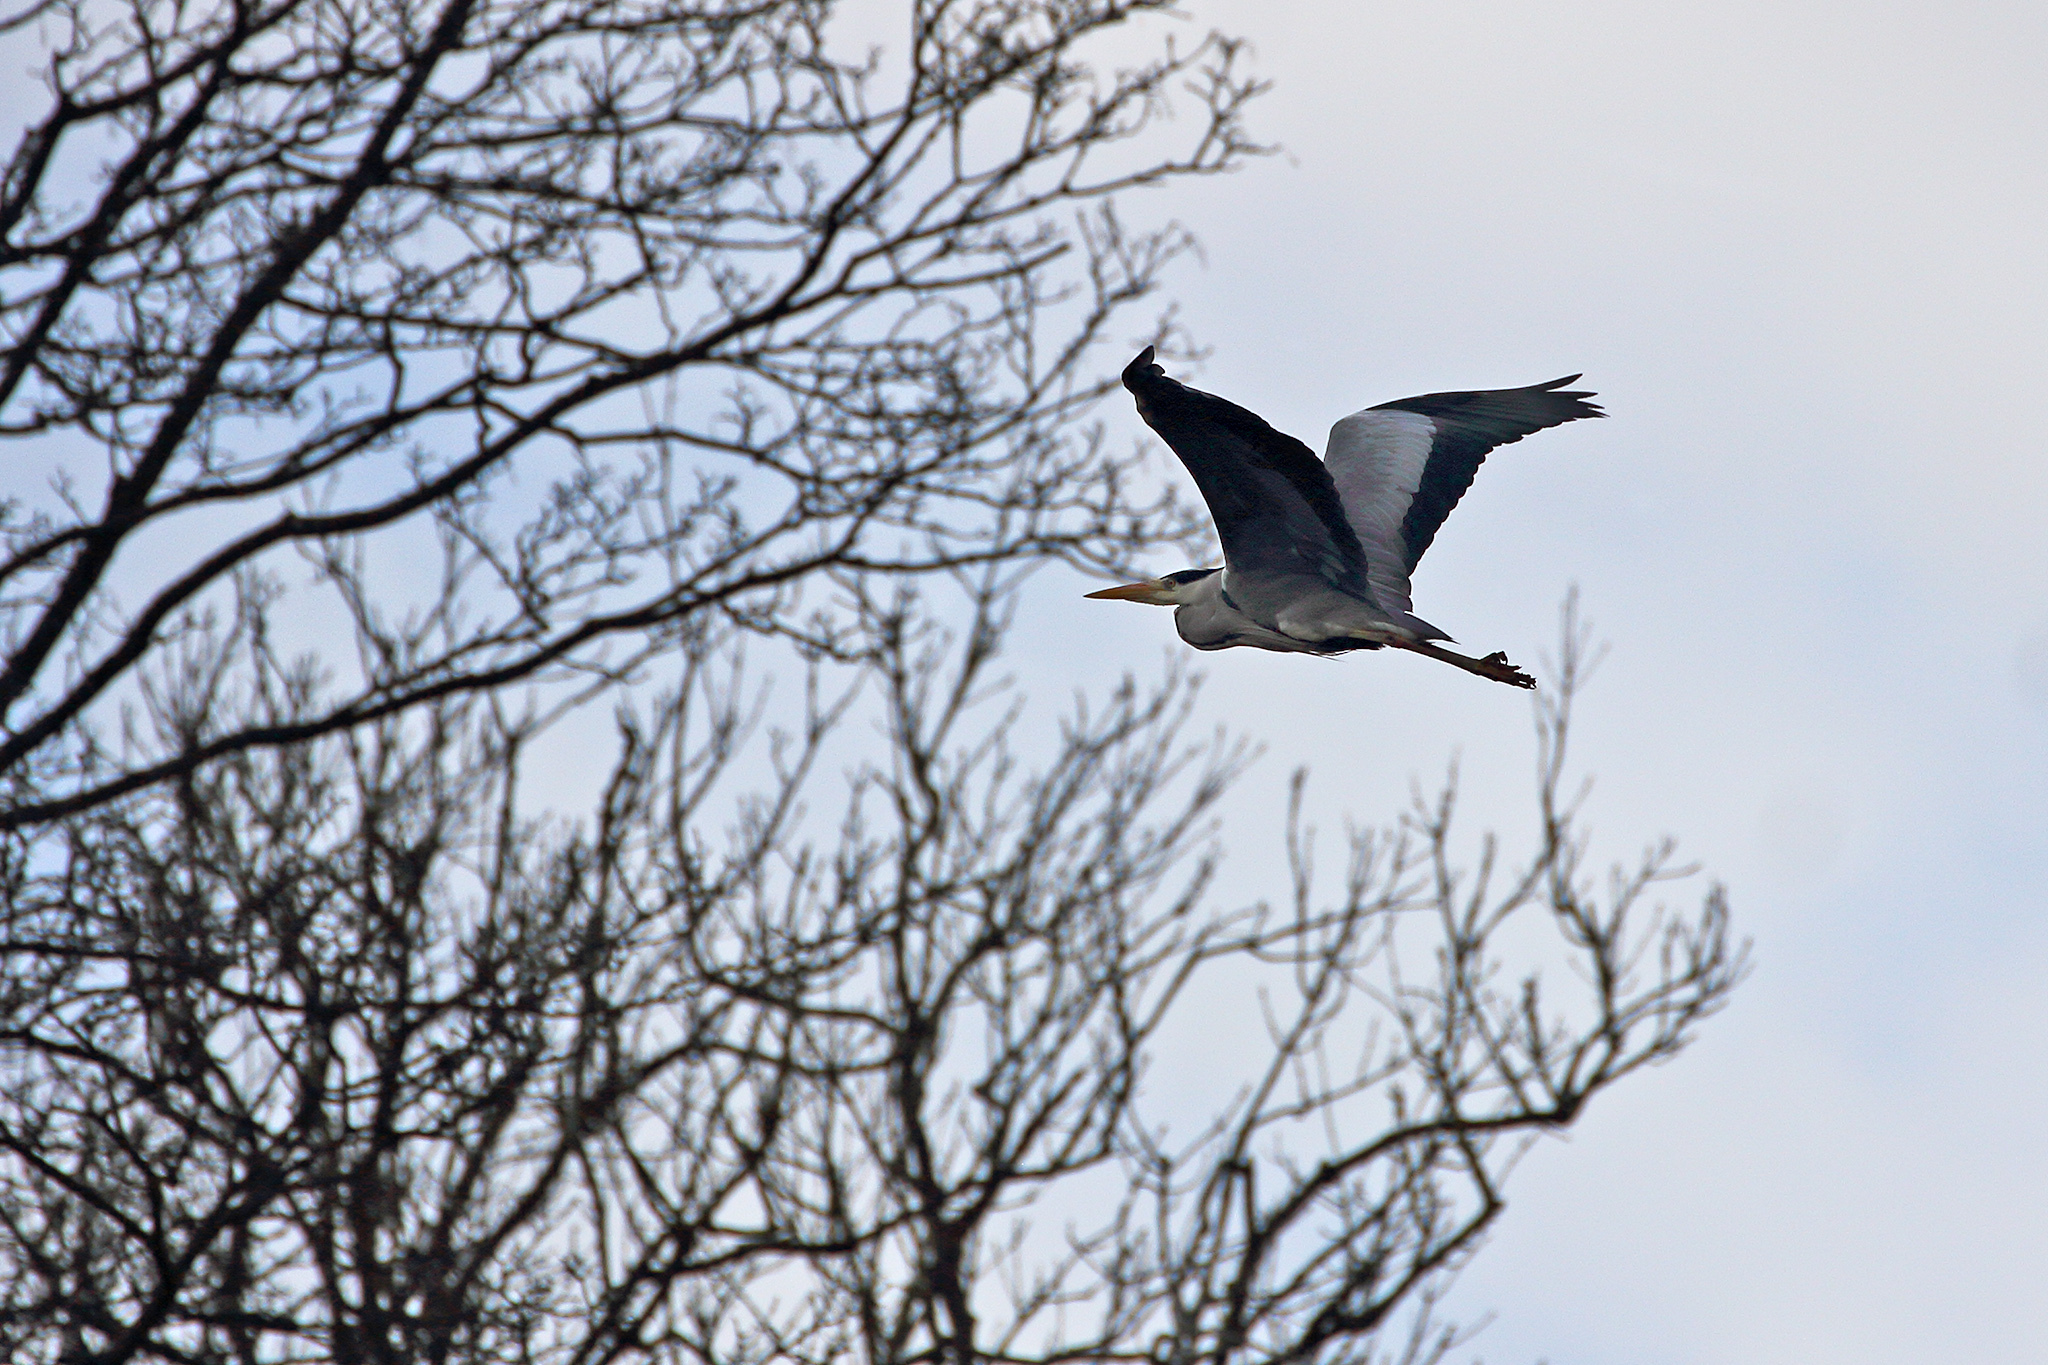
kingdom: Animalia
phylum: Chordata
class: Aves
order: Pelecaniformes
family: Ardeidae
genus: Ardea
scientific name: Ardea cinerea
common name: Grey heron
